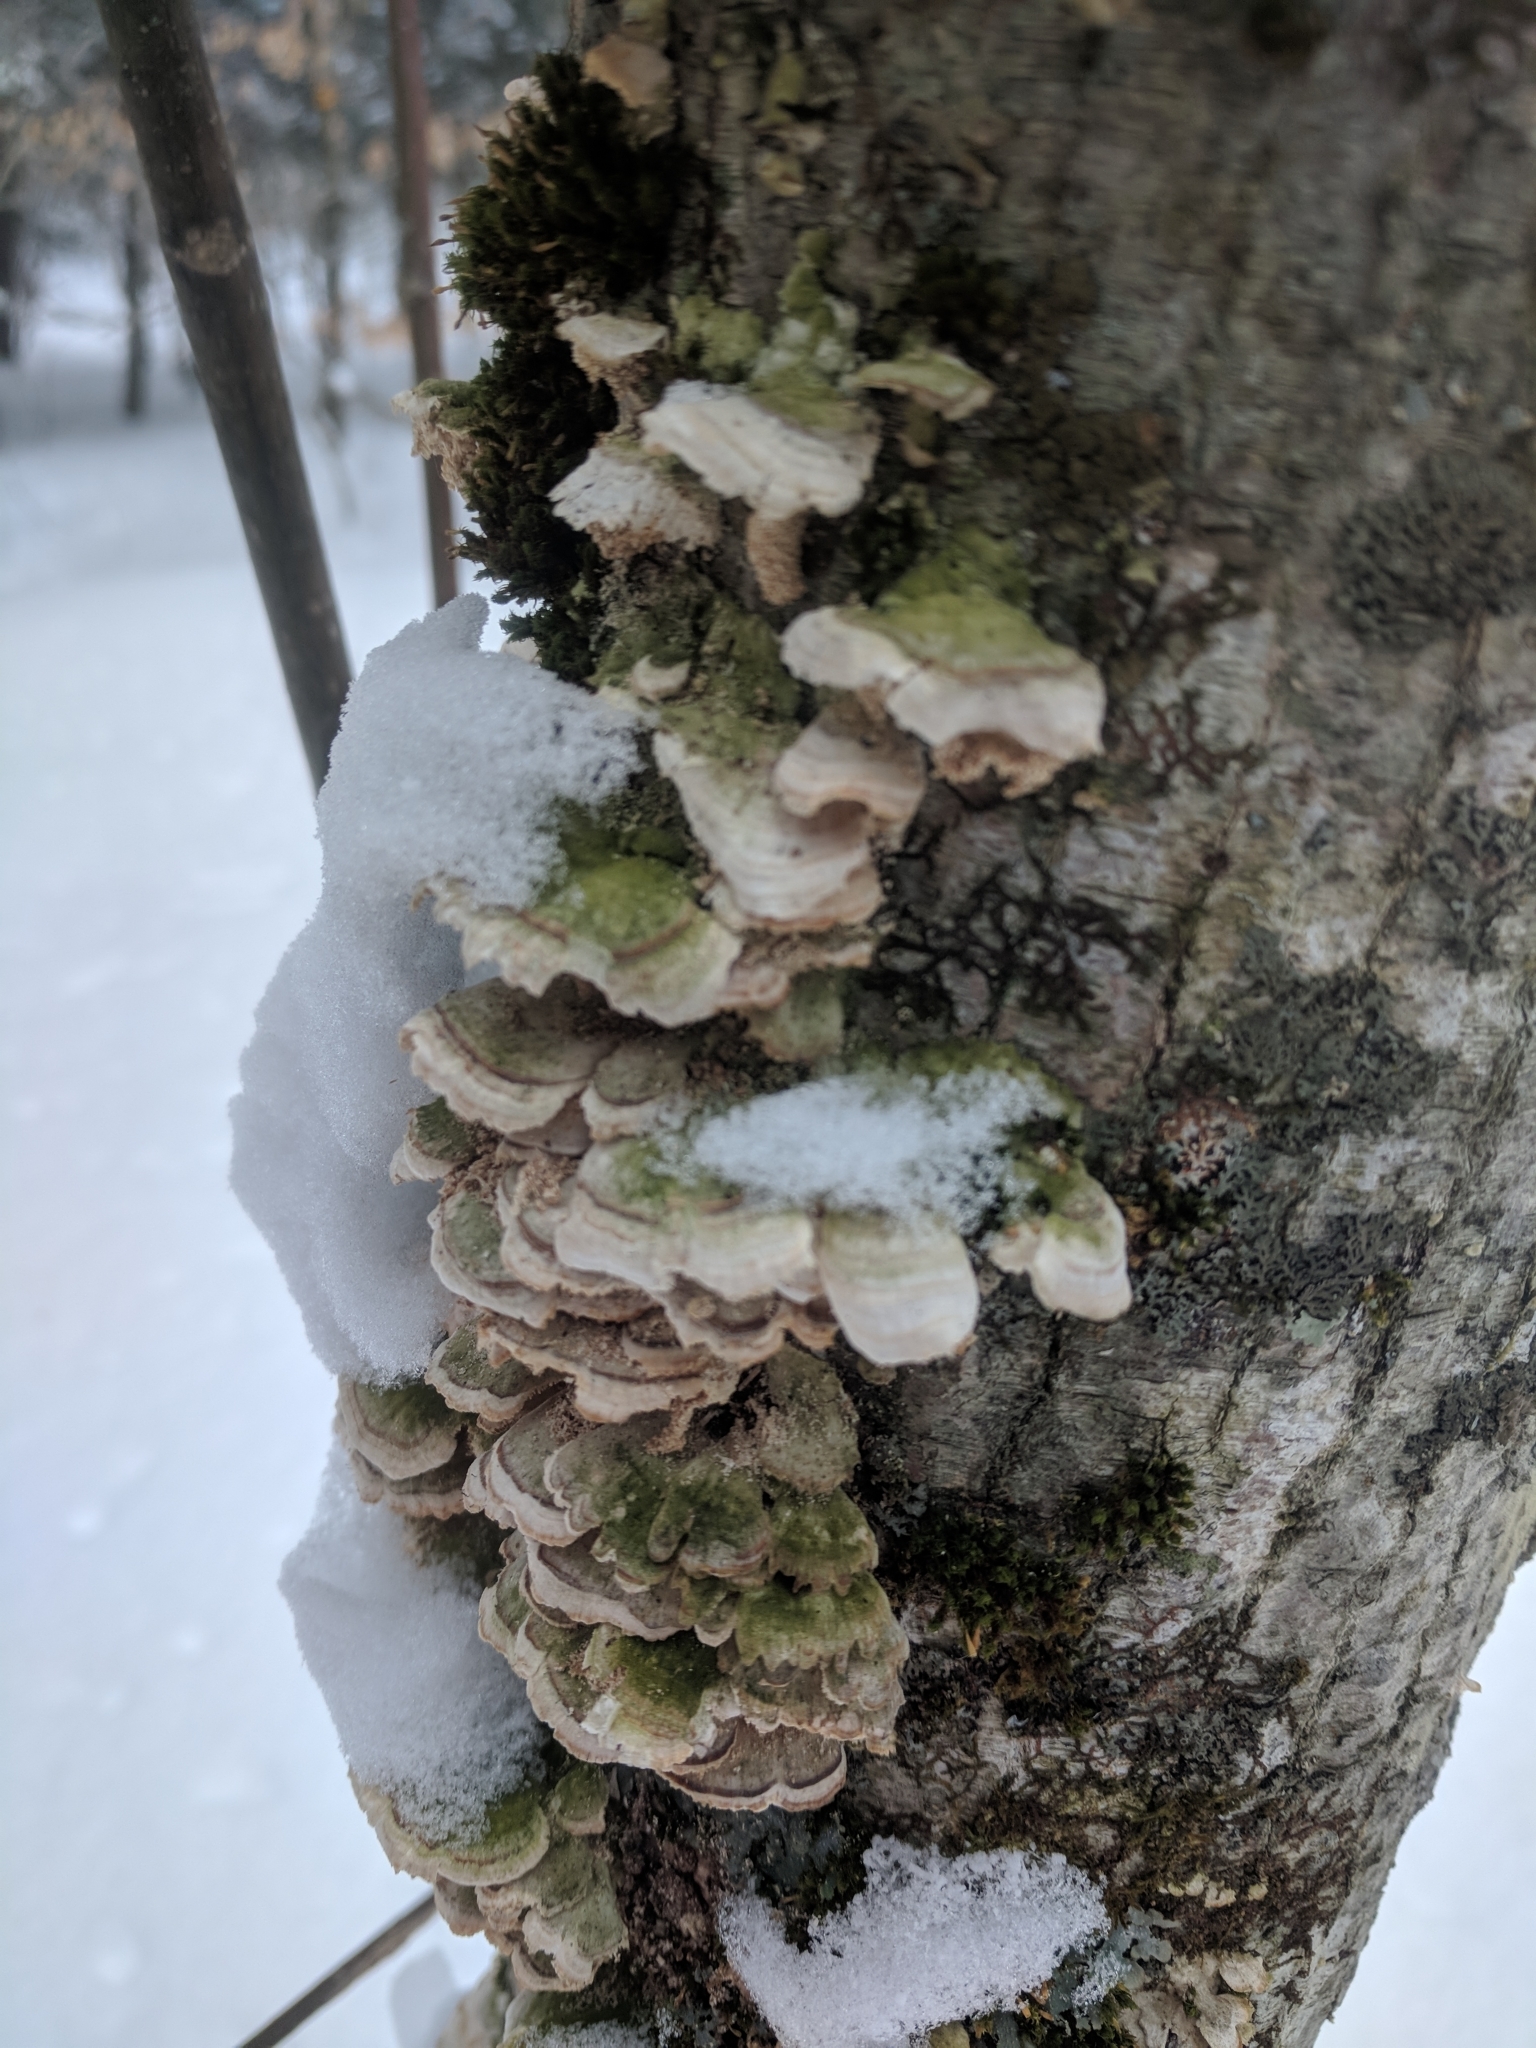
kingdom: Fungi
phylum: Basidiomycota
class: Agaricomycetes
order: Hymenochaetales
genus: Trichaptum
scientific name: Trichaptum biforme
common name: Violet-toothed polypore
